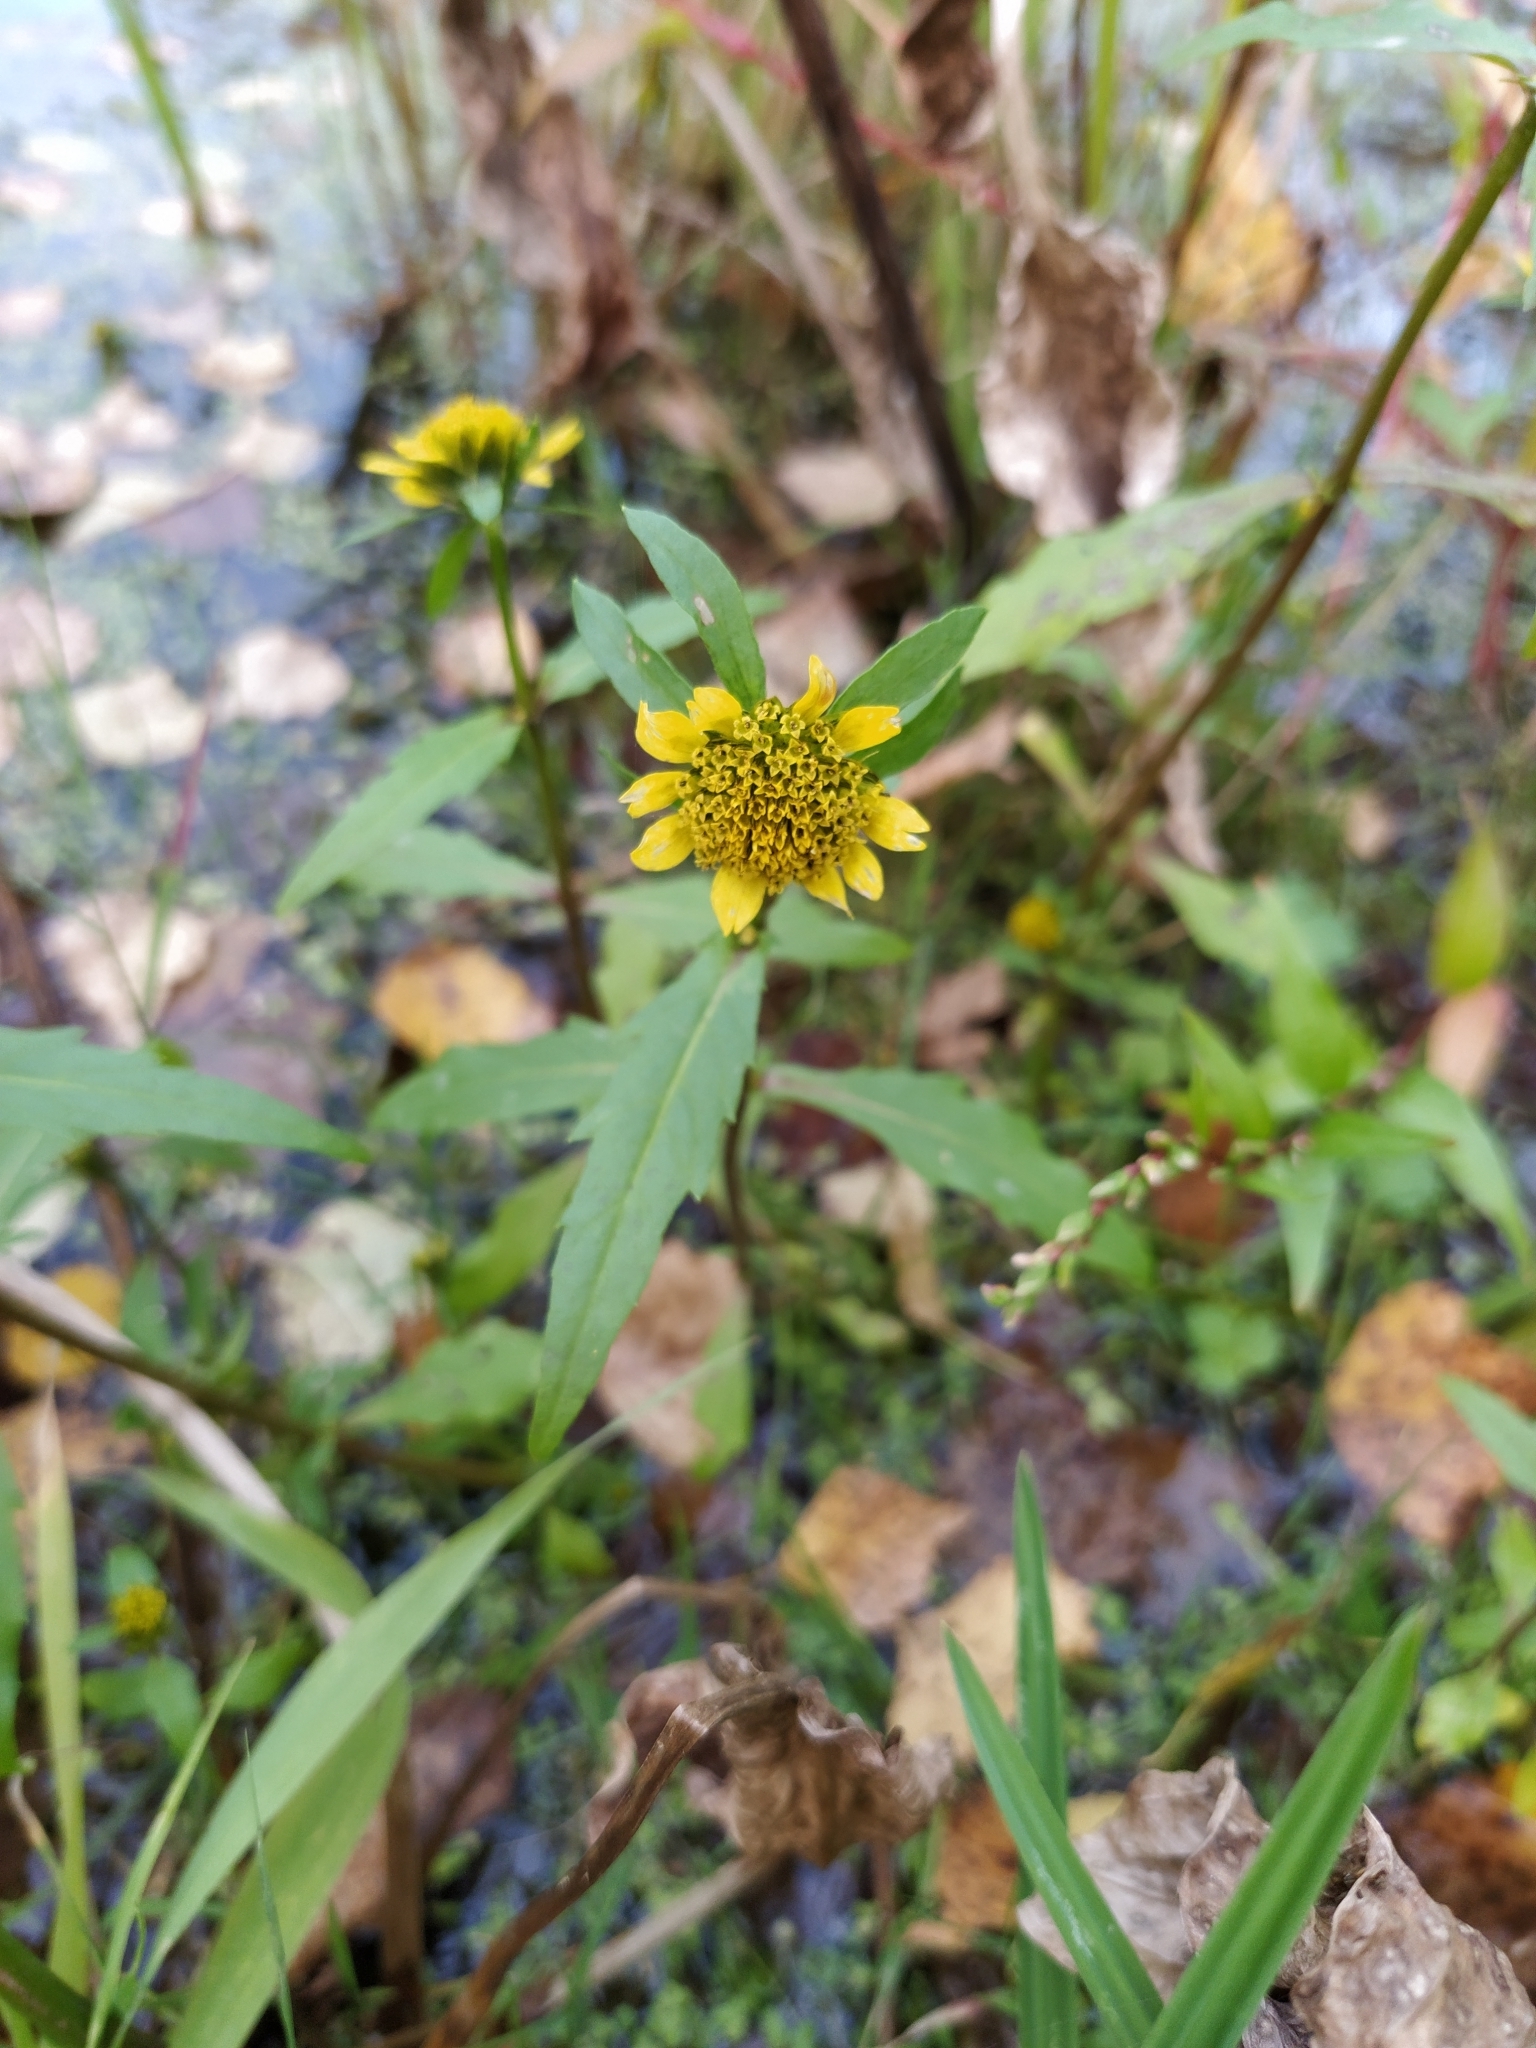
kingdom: Plantae
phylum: Tracheophyta
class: Magnoliopsida
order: Asterales
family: Asteraceae
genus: Bidens
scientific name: Bidens cernua
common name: Nodding bur-marigold
